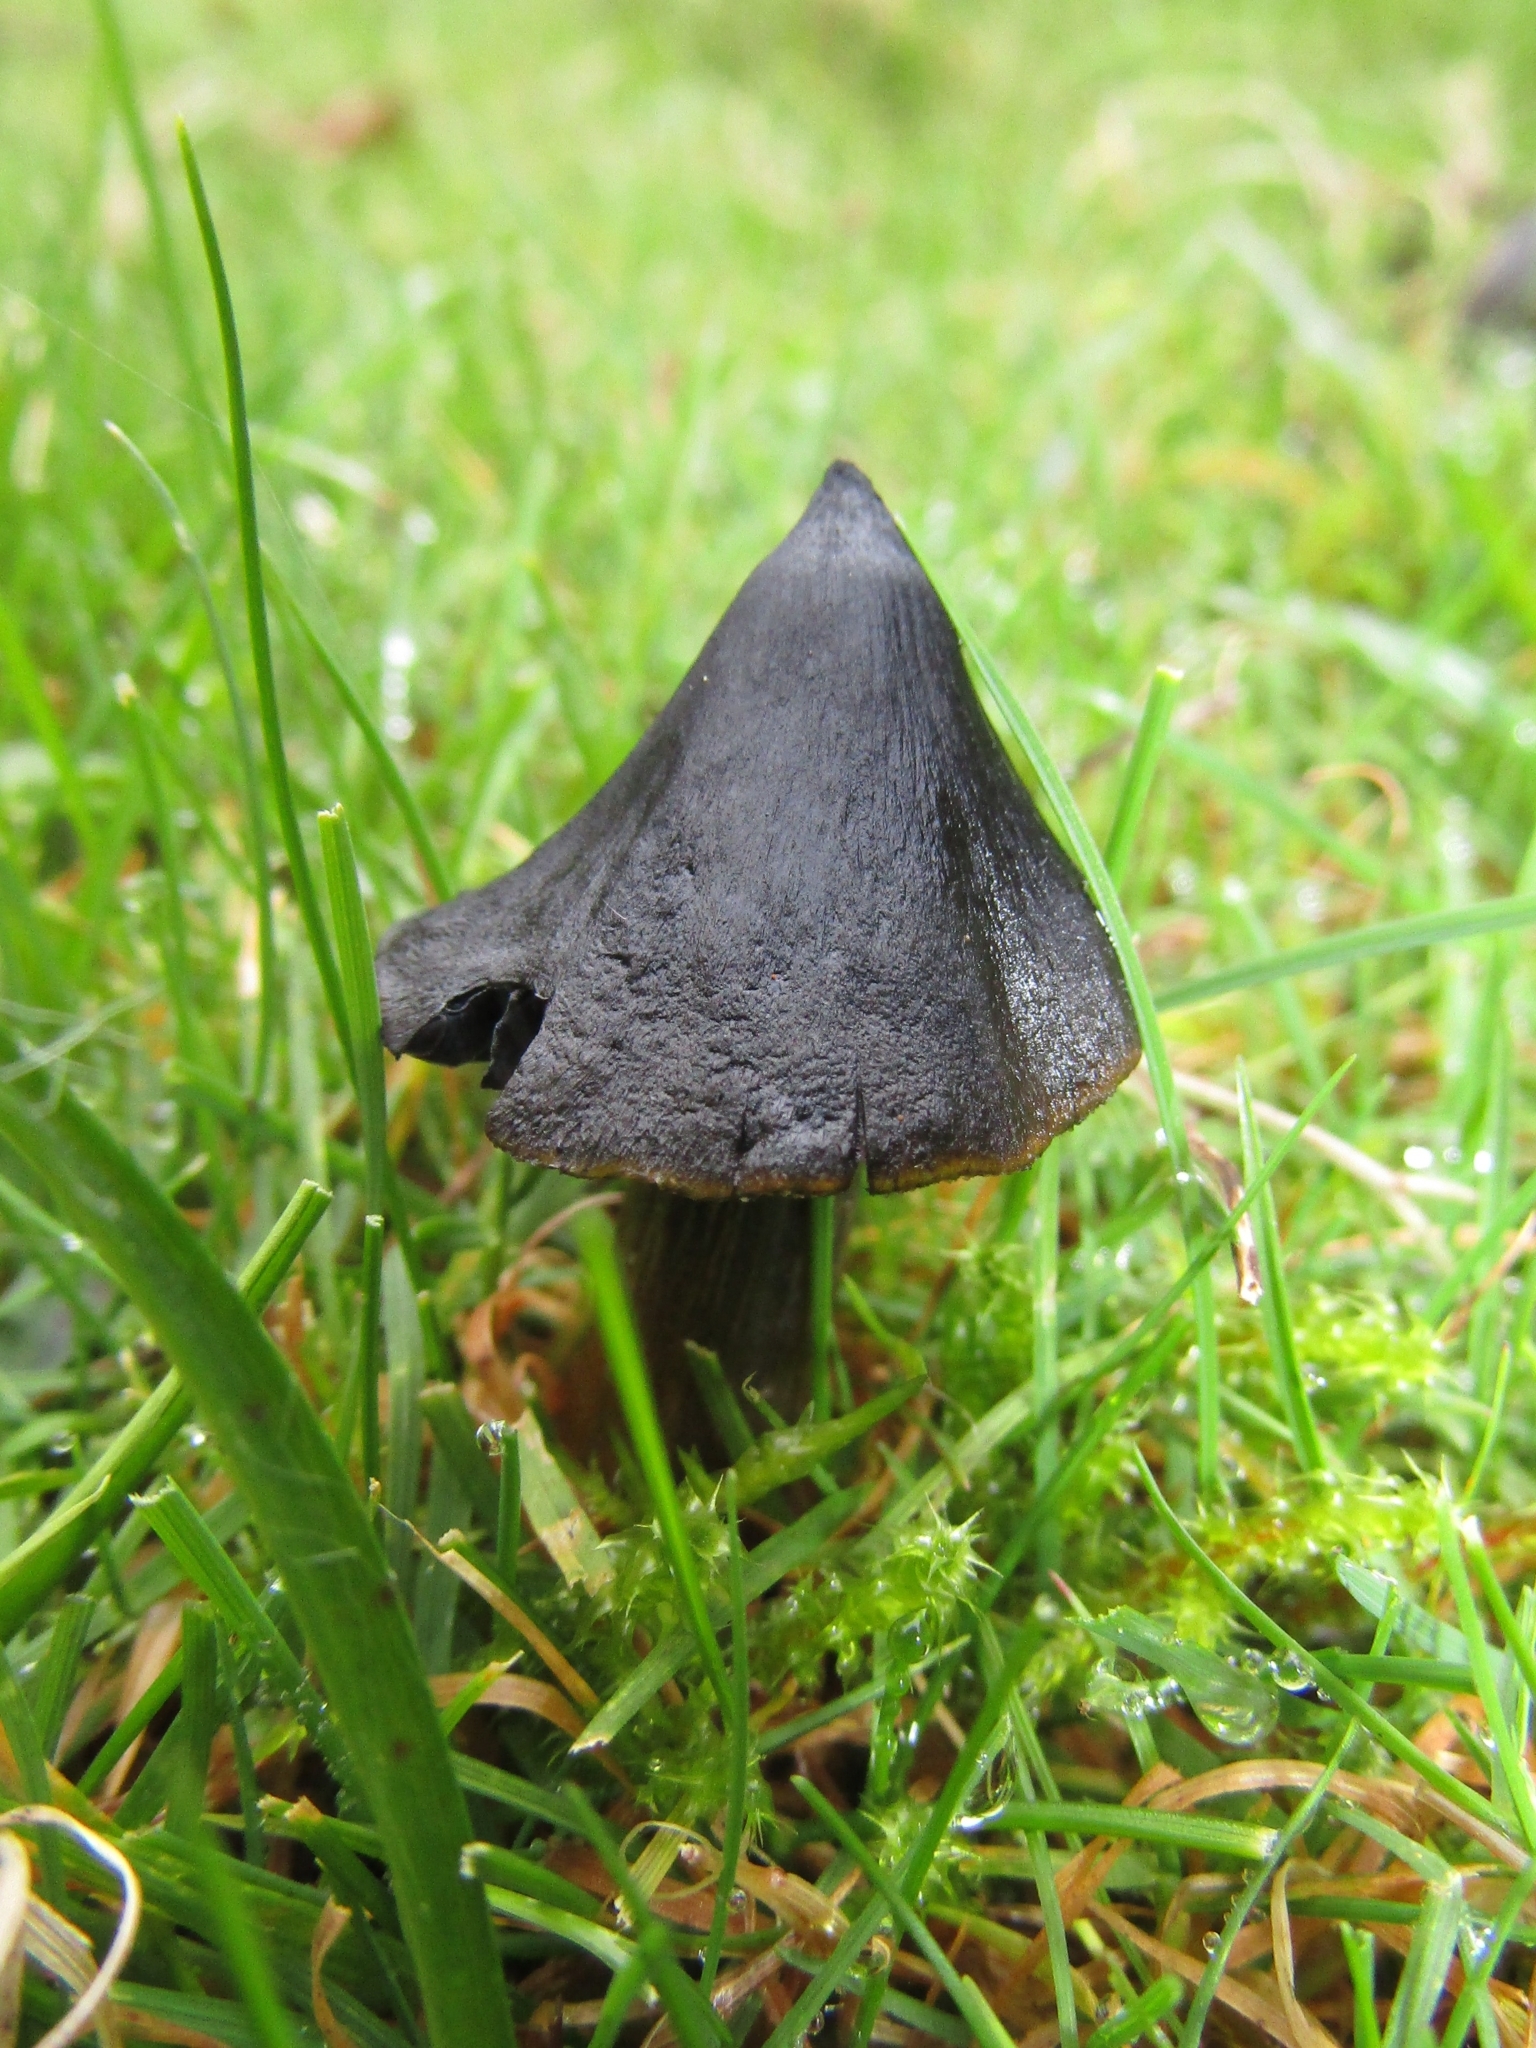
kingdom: Fungi
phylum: Basidiomycota
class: Agaricomycetes
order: Agaricales
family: Hygrophoraceae
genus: Hygrocybe
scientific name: Hygrocybe conica
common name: Blackening wax-cap
